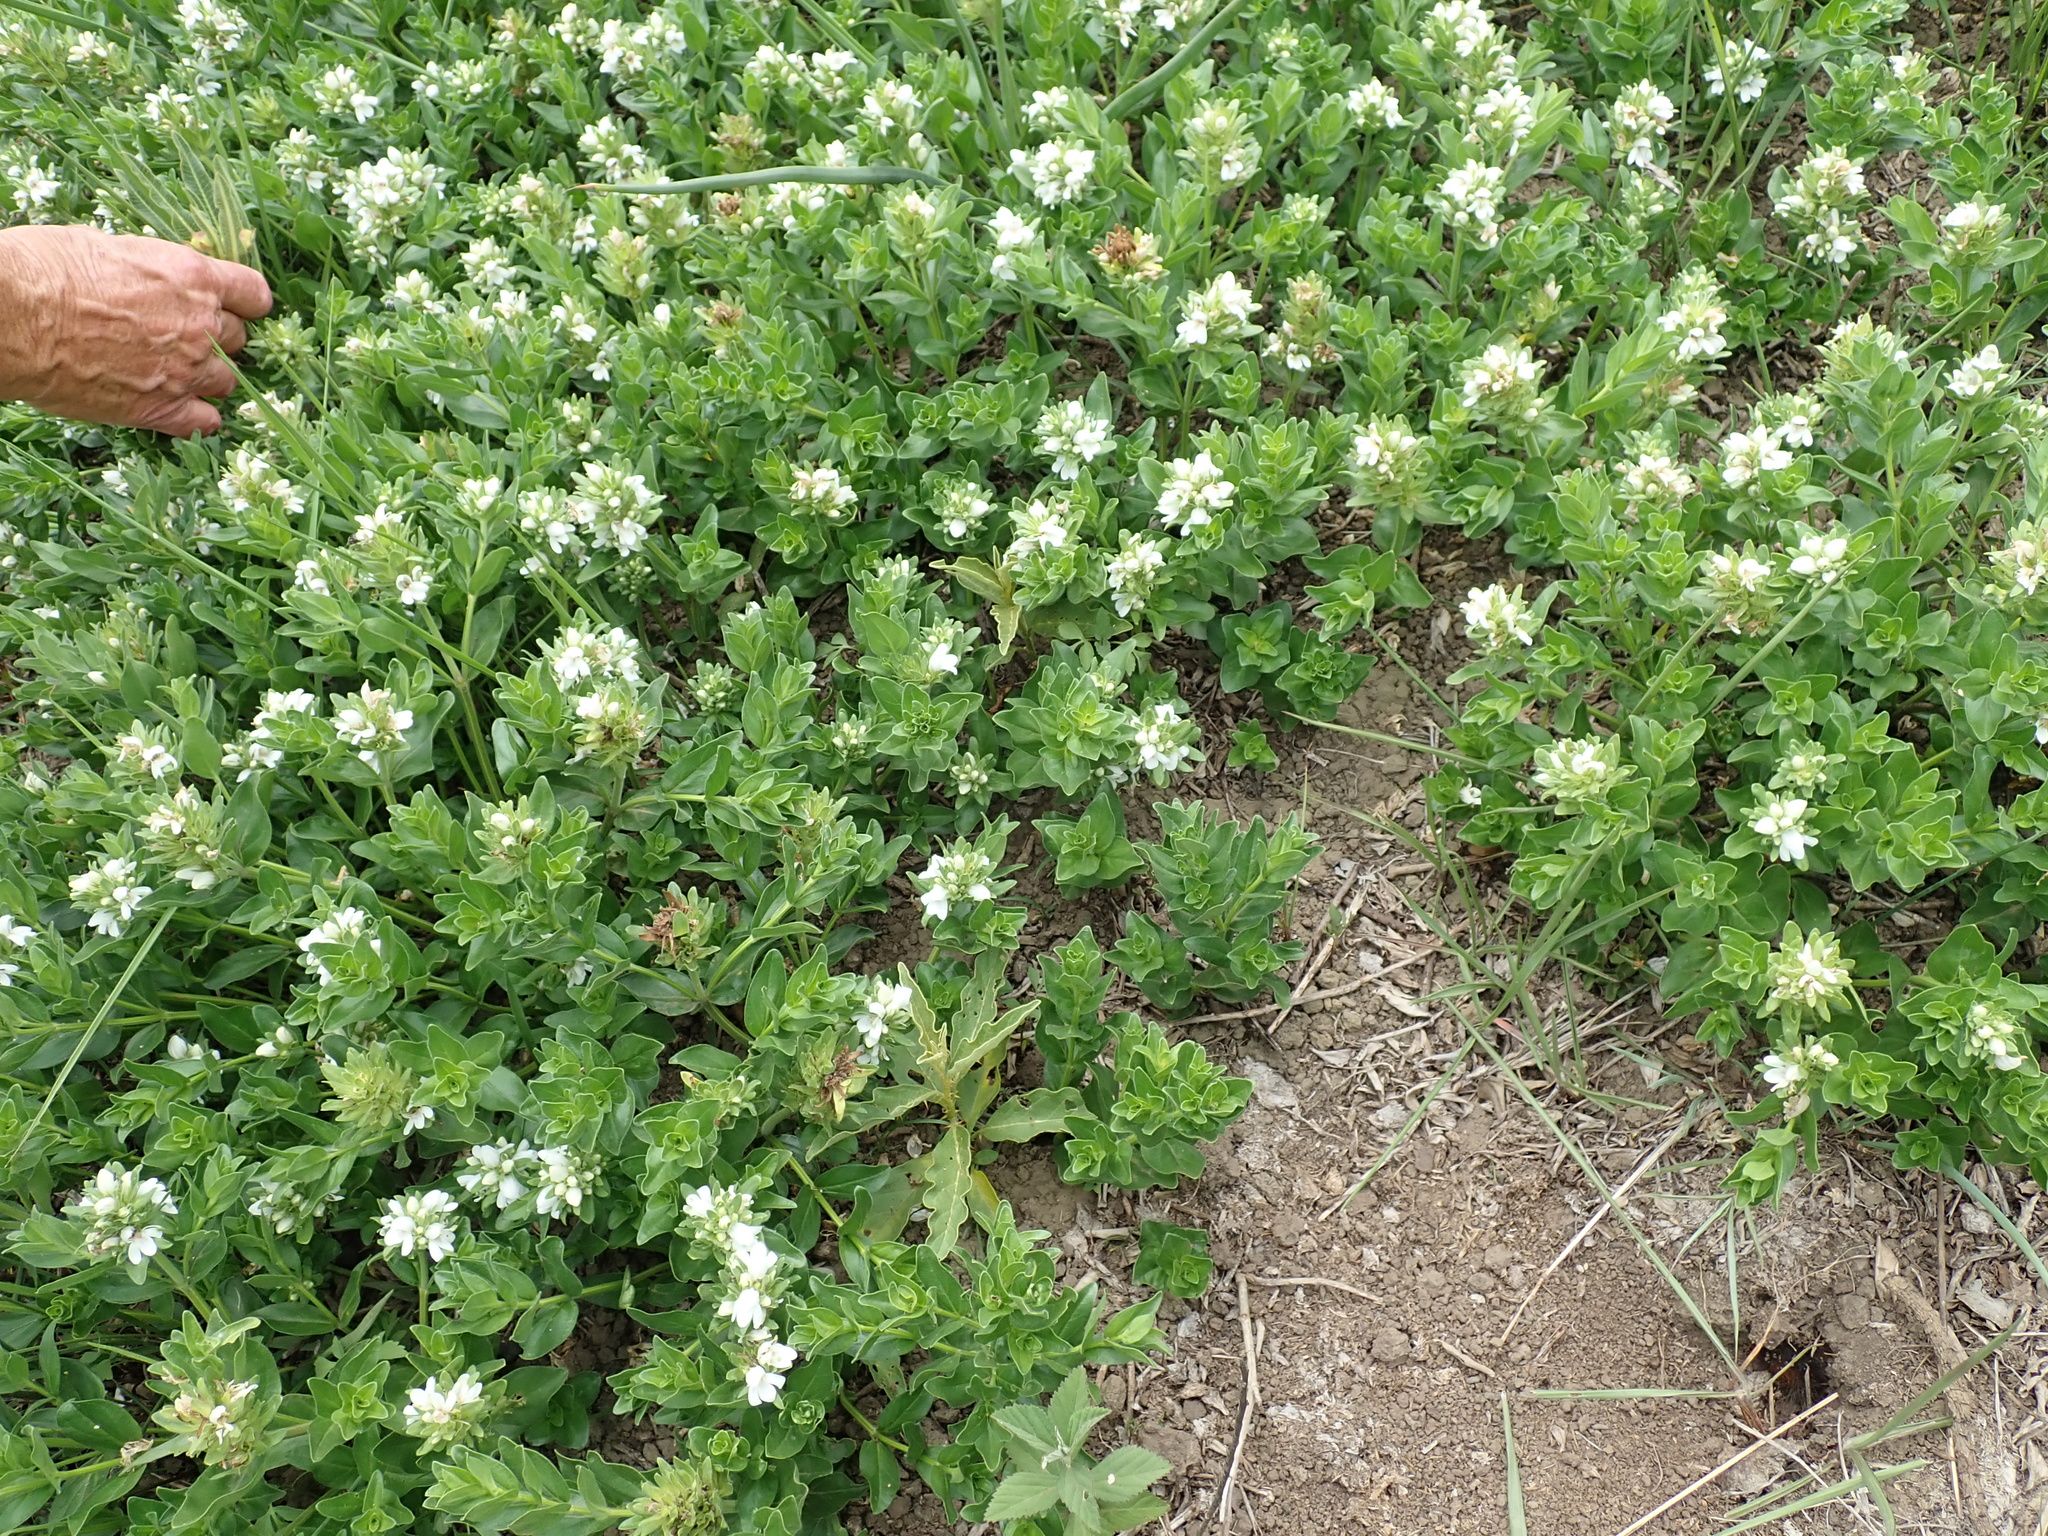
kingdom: Plantae
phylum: Tracheophyta
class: Magnoliopsida
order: Lamiales
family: Acanthaceae
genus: Justicia
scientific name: Justicia andromeda
